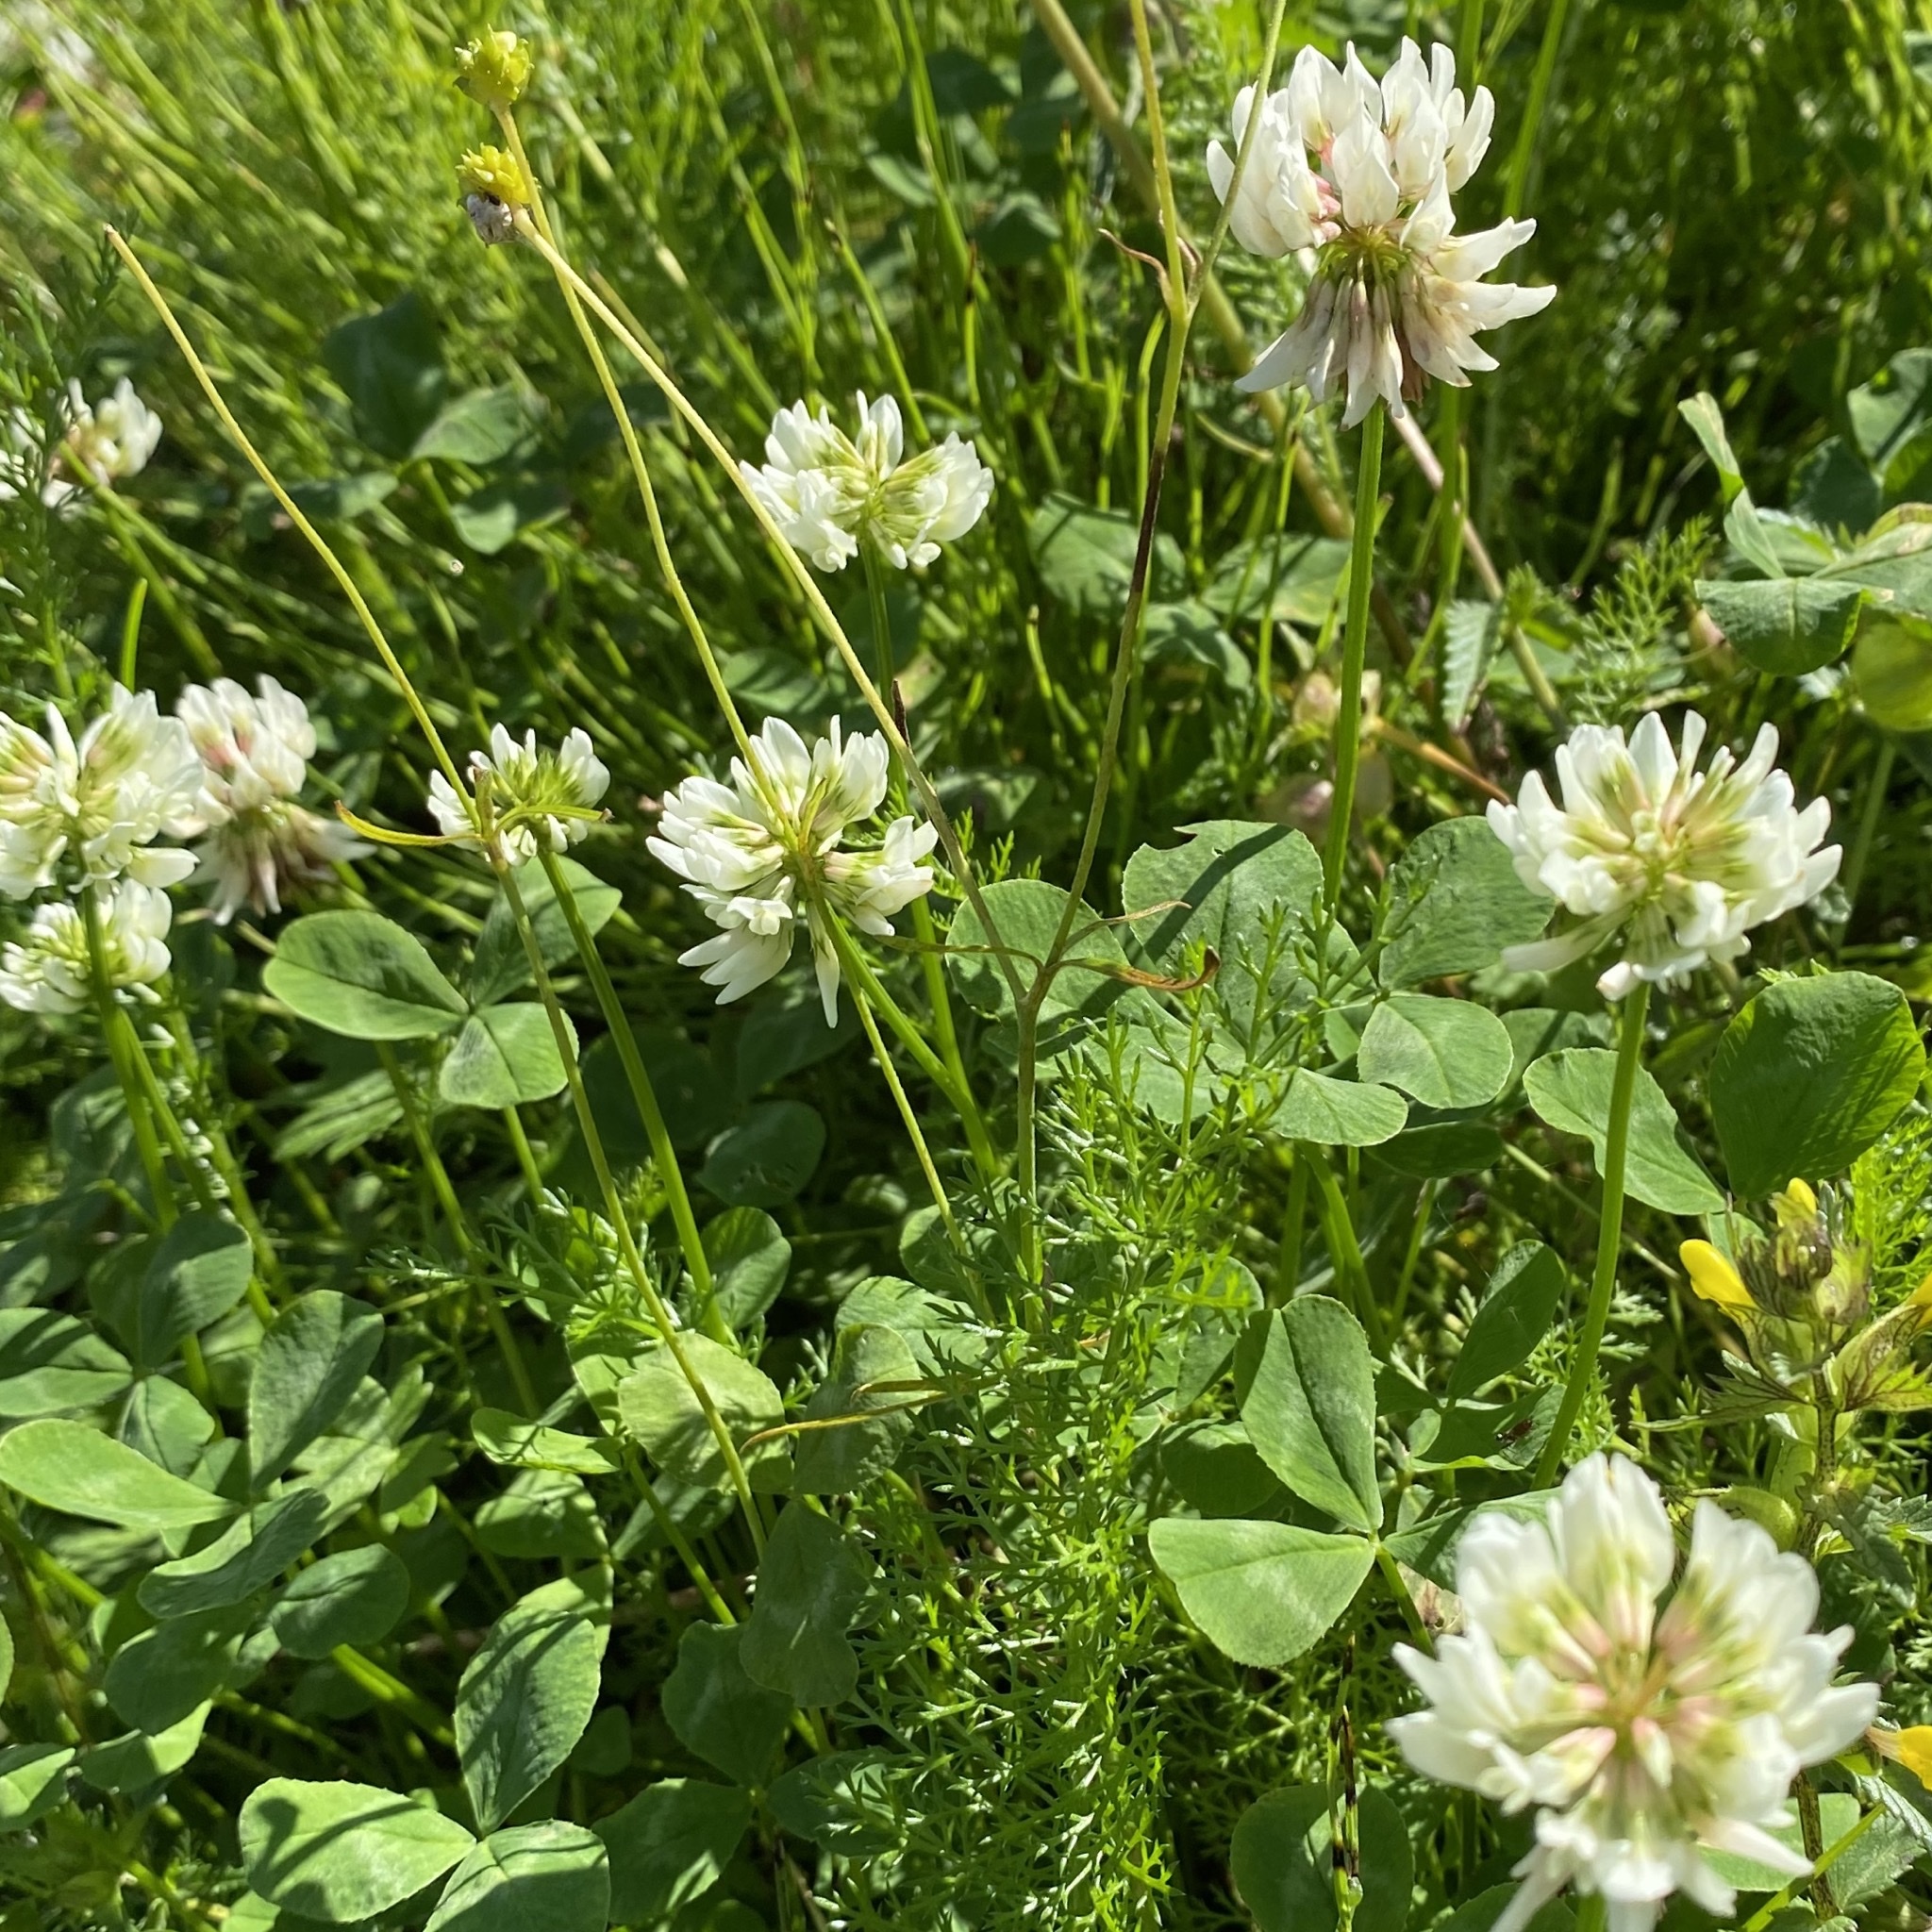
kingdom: Plantae
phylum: Tracheophyta
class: Magnoliopsida
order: Fabales
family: Fabaceae
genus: Trifolium
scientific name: Trifolium repens
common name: White clover
